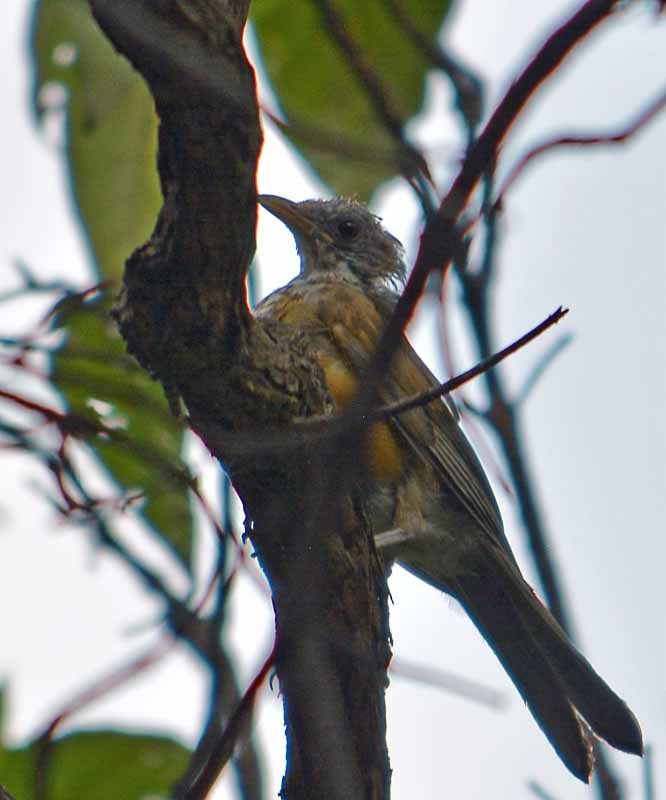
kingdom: Animalia
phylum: Chordata
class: Aves
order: Passeriformes
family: Turdidae
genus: Turdus
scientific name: Turdus rufopalliatus
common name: Rufous-backed robin
